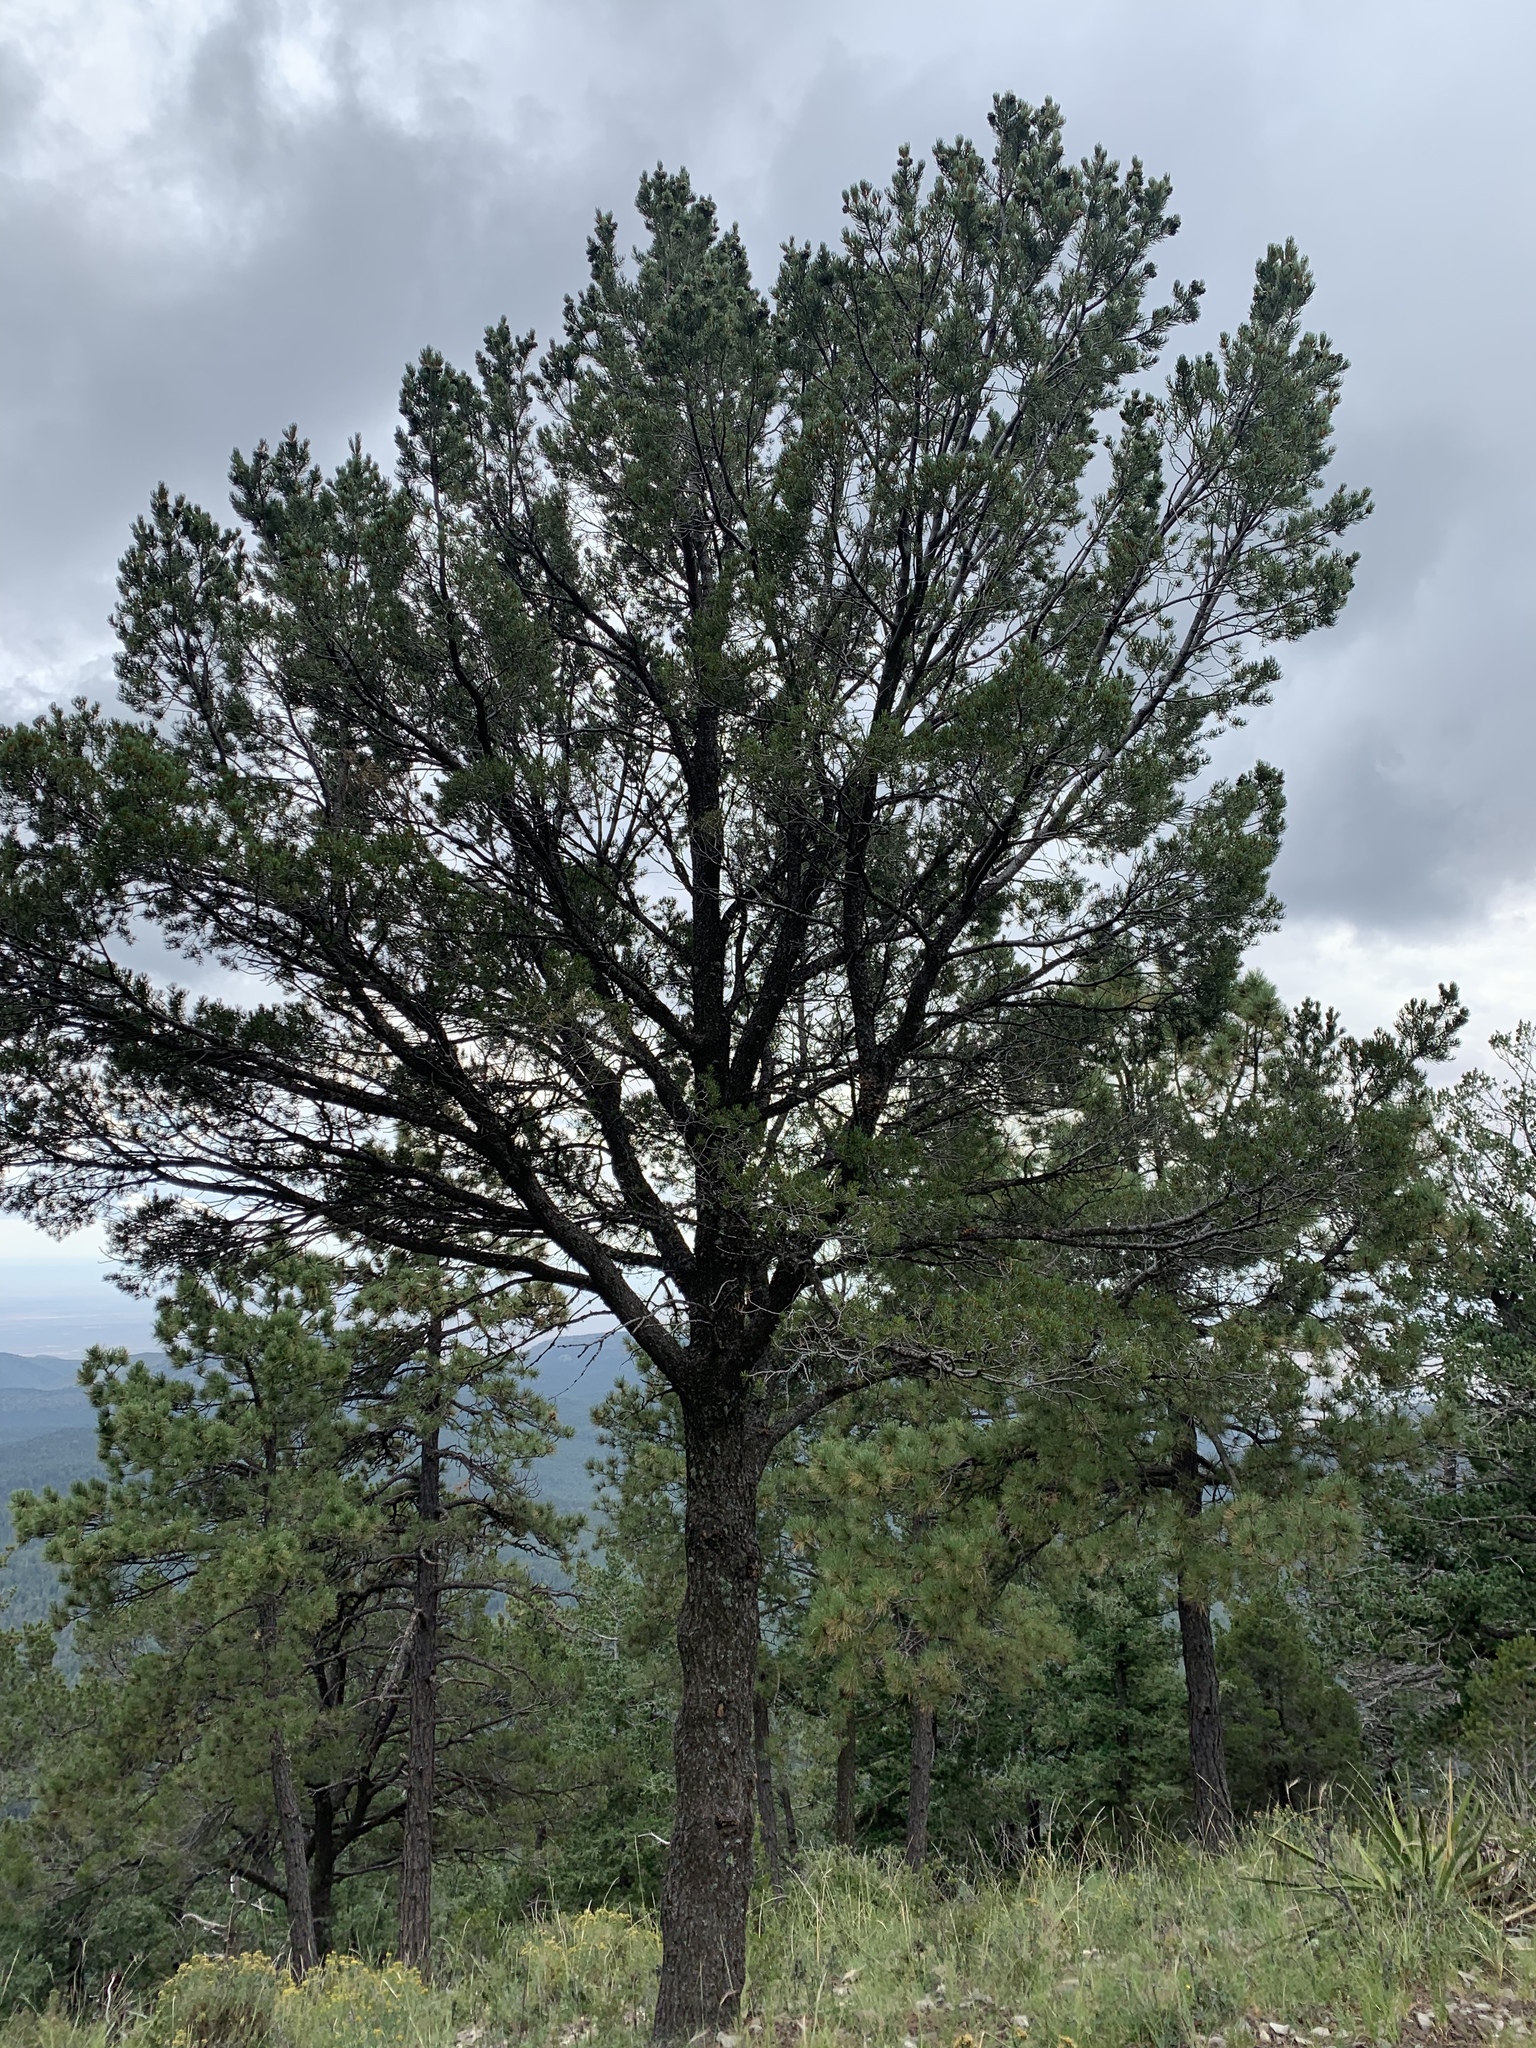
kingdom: Plantae
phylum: Tracheophyta
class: Pinopsida
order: Pinales
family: Pinaceae
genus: Pinus
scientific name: Pinus edulis
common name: Colorado pinyon
